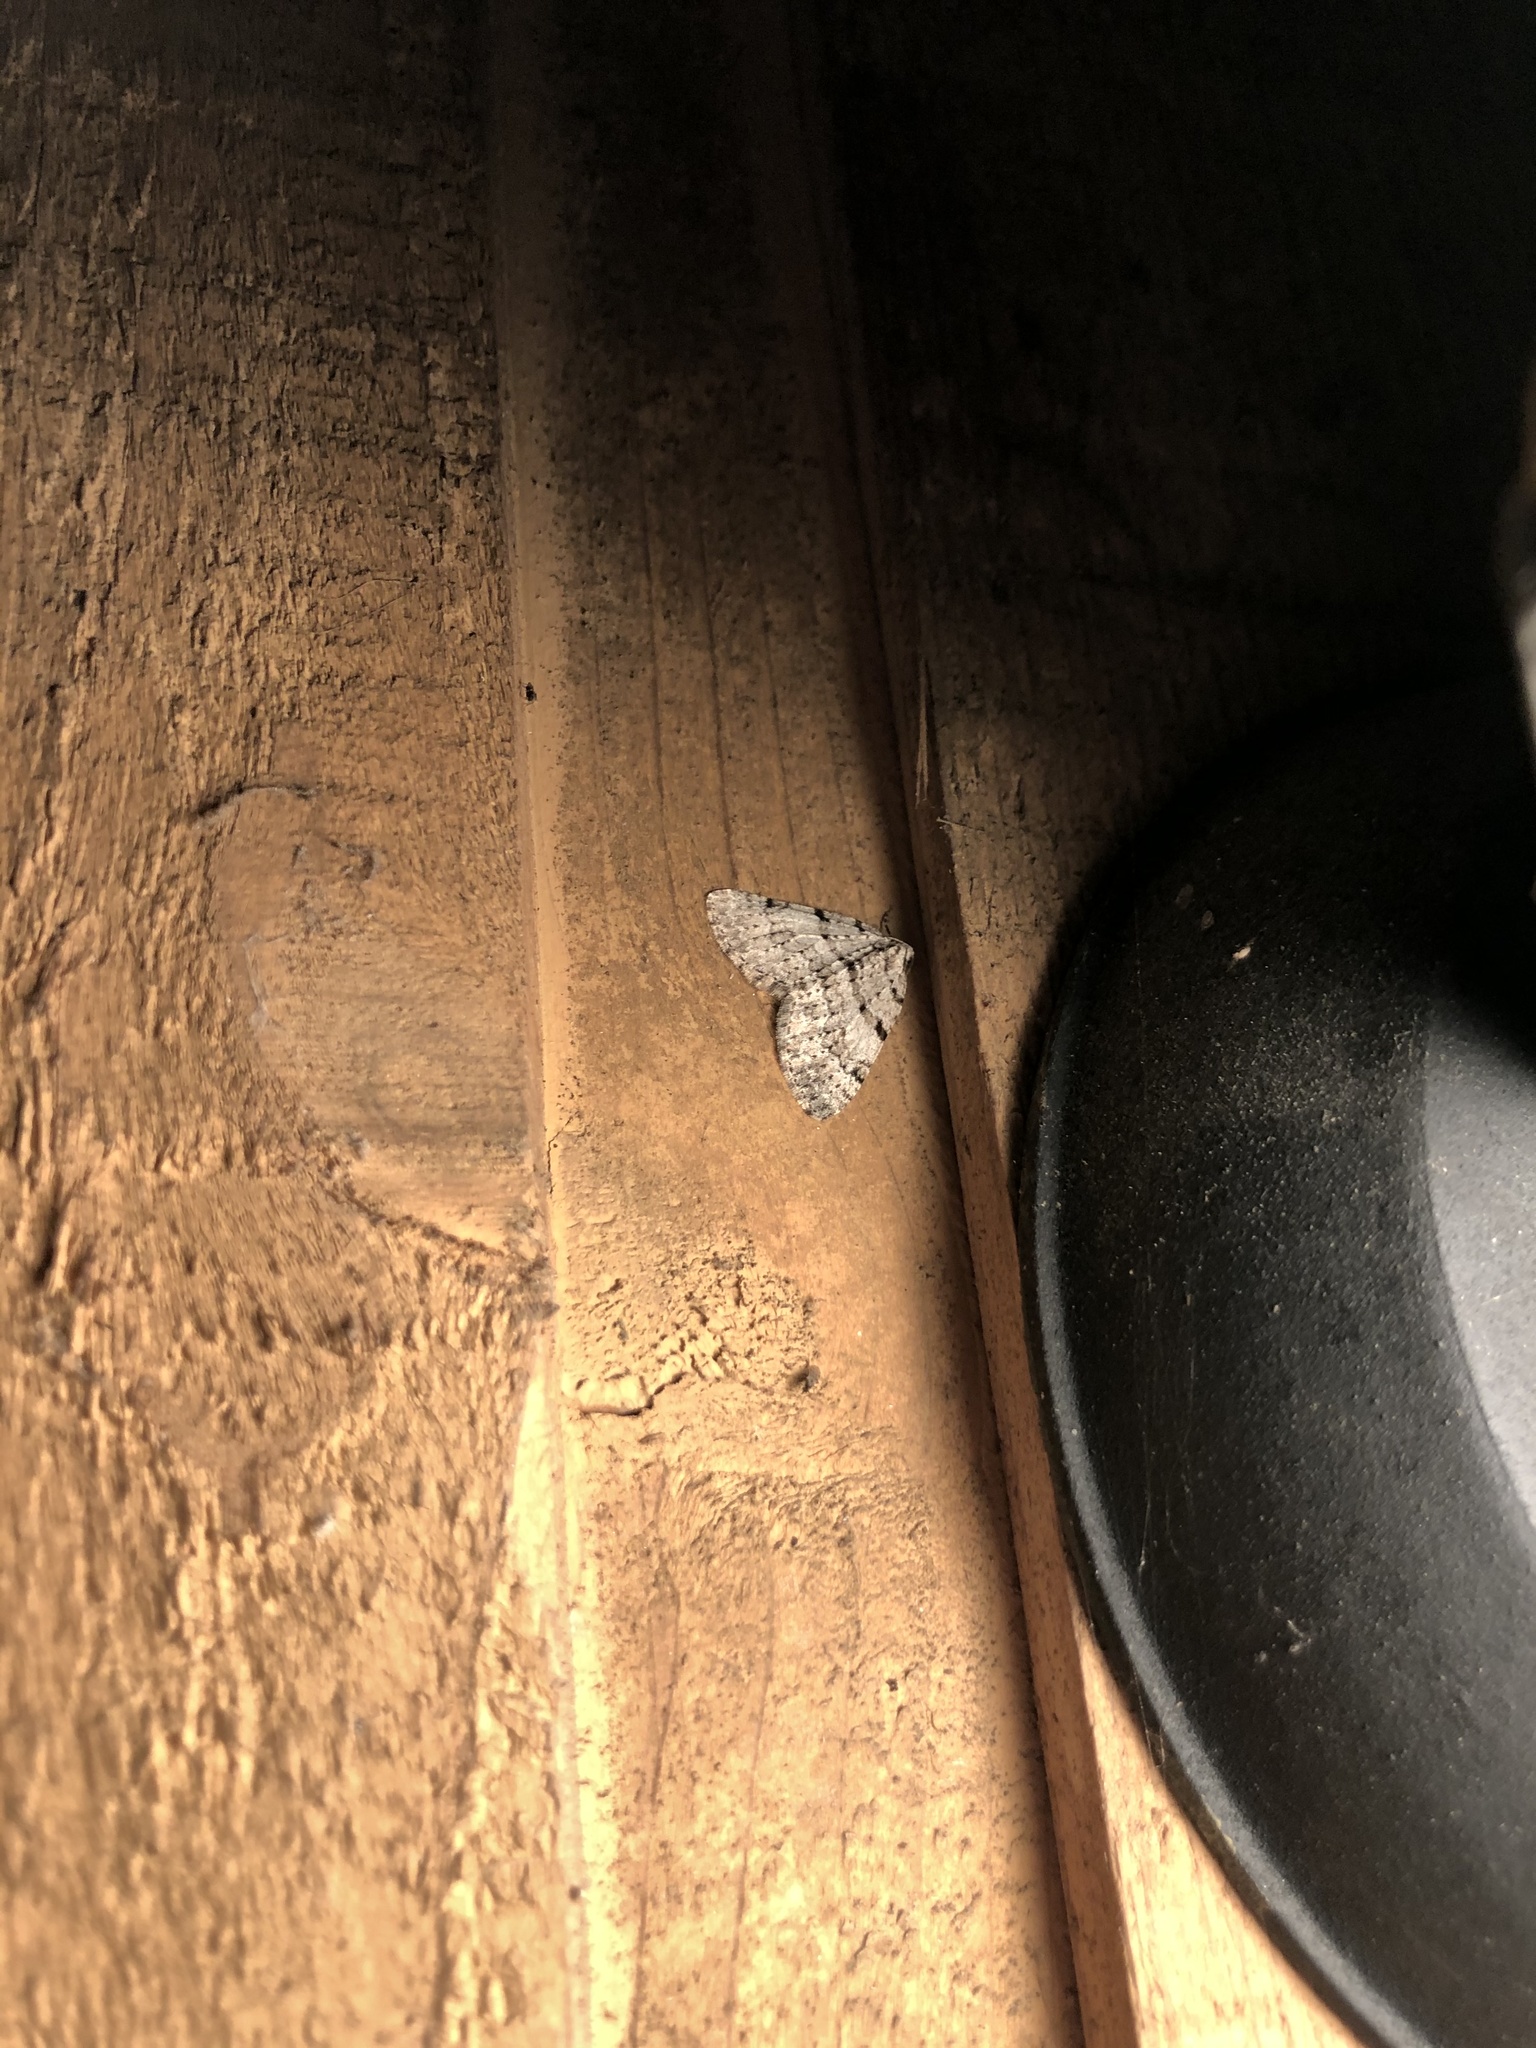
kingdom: Animalia
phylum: Arthropoda
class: Insecta
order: Lepidoptera
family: Geometridae
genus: Perizoma
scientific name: Perizoma curvilinea
